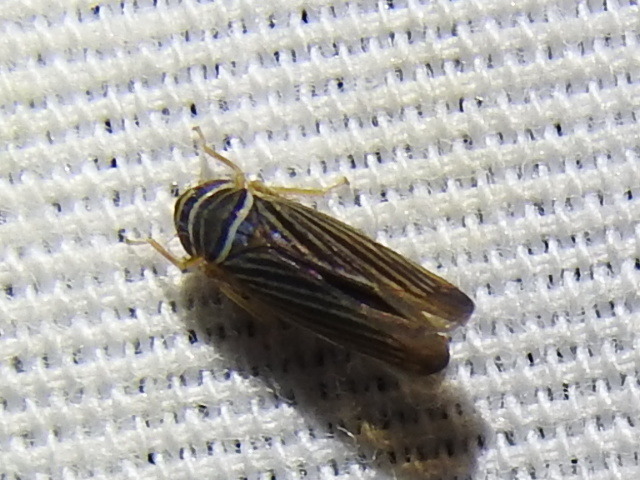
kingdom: Animalia
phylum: Arthropoda
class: Insecta
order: Hemiptera
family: Cicadellidae
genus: Tylozygus
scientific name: Tylozygus bifidus
